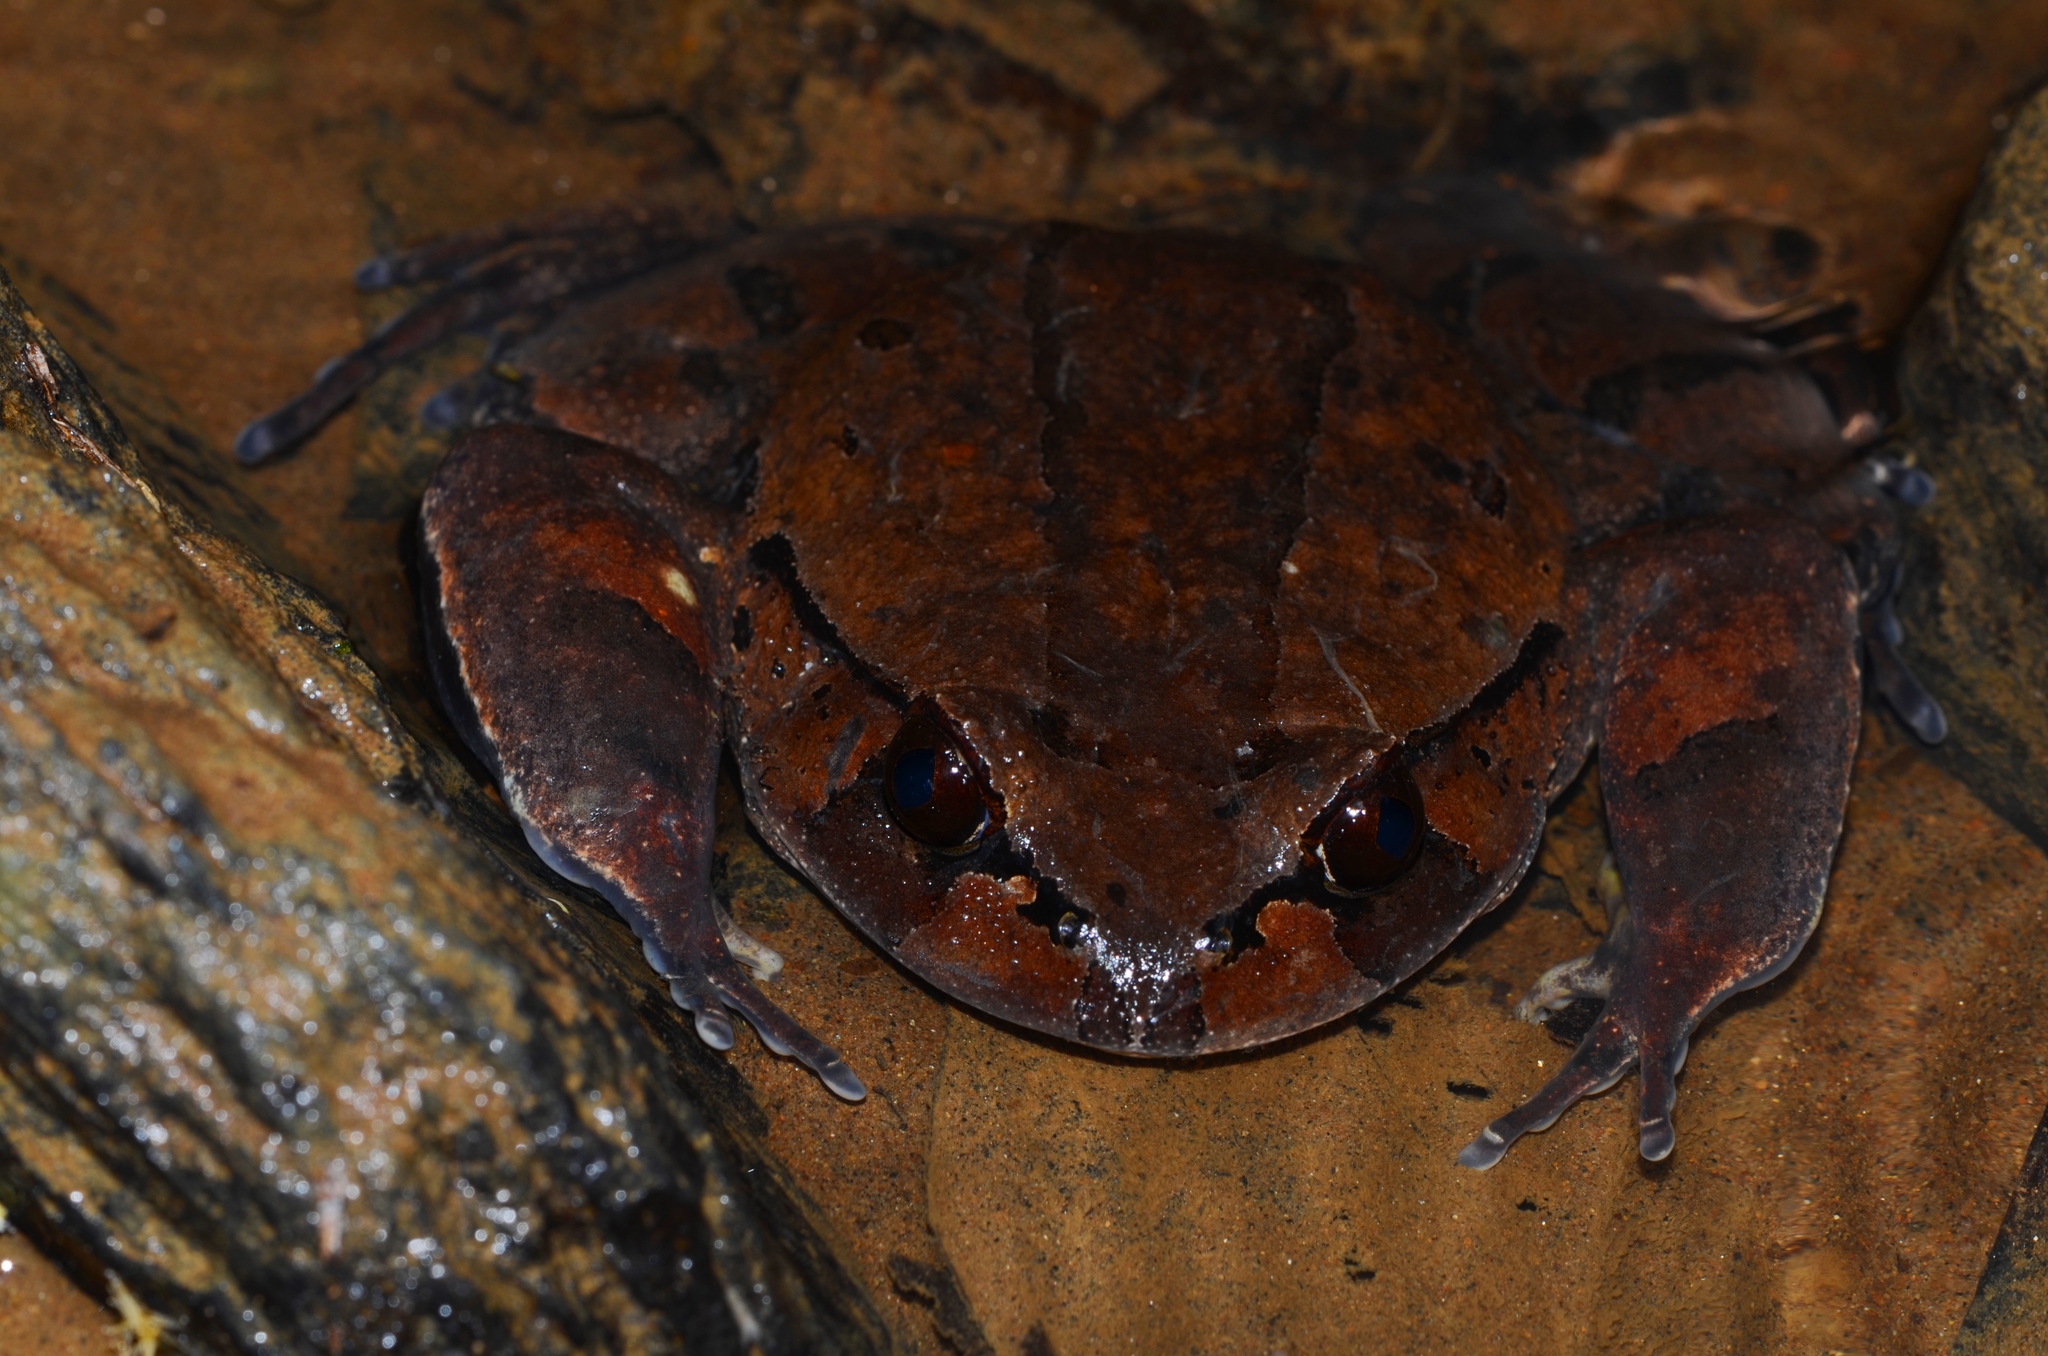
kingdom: Animalia
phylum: Chordata
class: Amphibia
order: Anura
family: Arthroleptidae
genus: Trichobatrachus
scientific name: Trichobatrachus robustus
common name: Hairy frog
